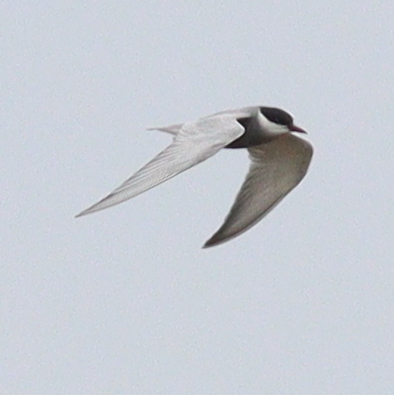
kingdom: Animalia
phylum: Chordata
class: Aves
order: Charadriiformes
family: Laridae
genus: Chlidonias
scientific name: Chlidonias hybrida
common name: Whiskered tern
